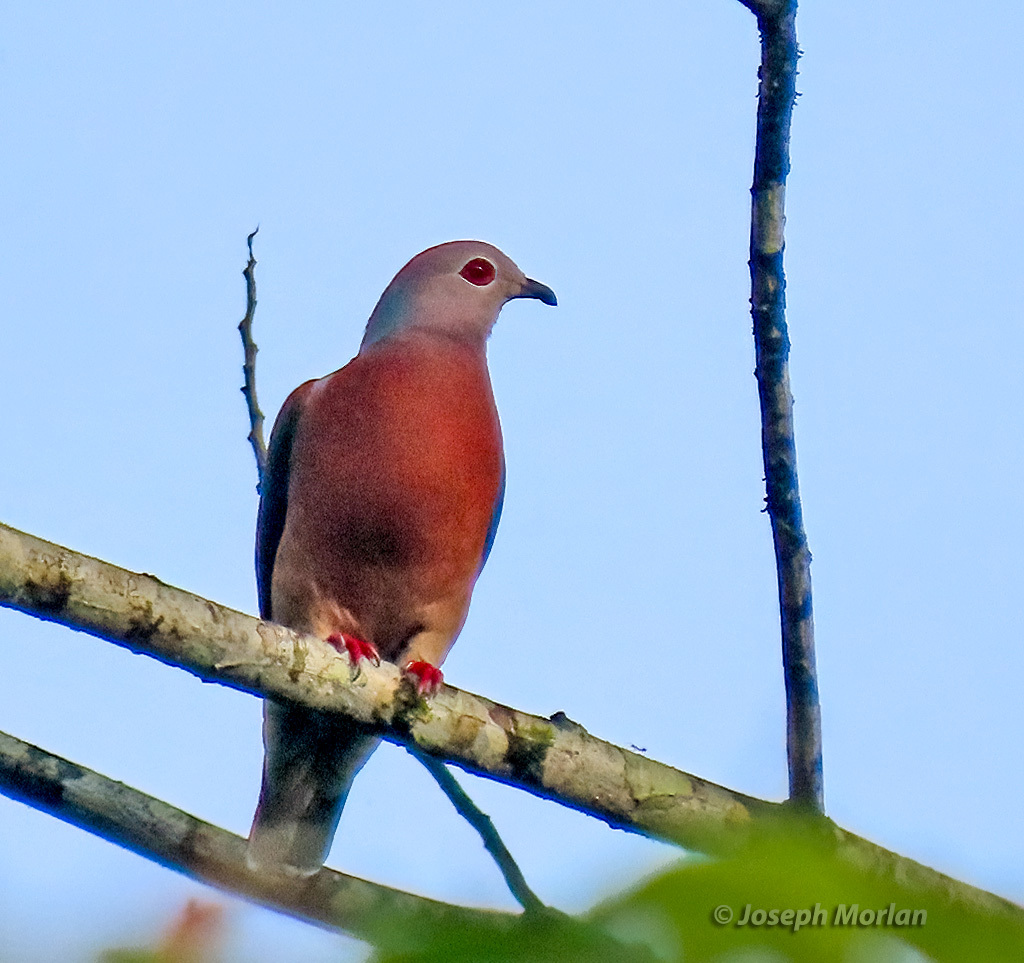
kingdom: Animalia
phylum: Chordata
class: Aves
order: Columbiformes
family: Columbidae
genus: Ducula
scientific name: Ducula rufigaster
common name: Purple-tailed imperial pigeon
